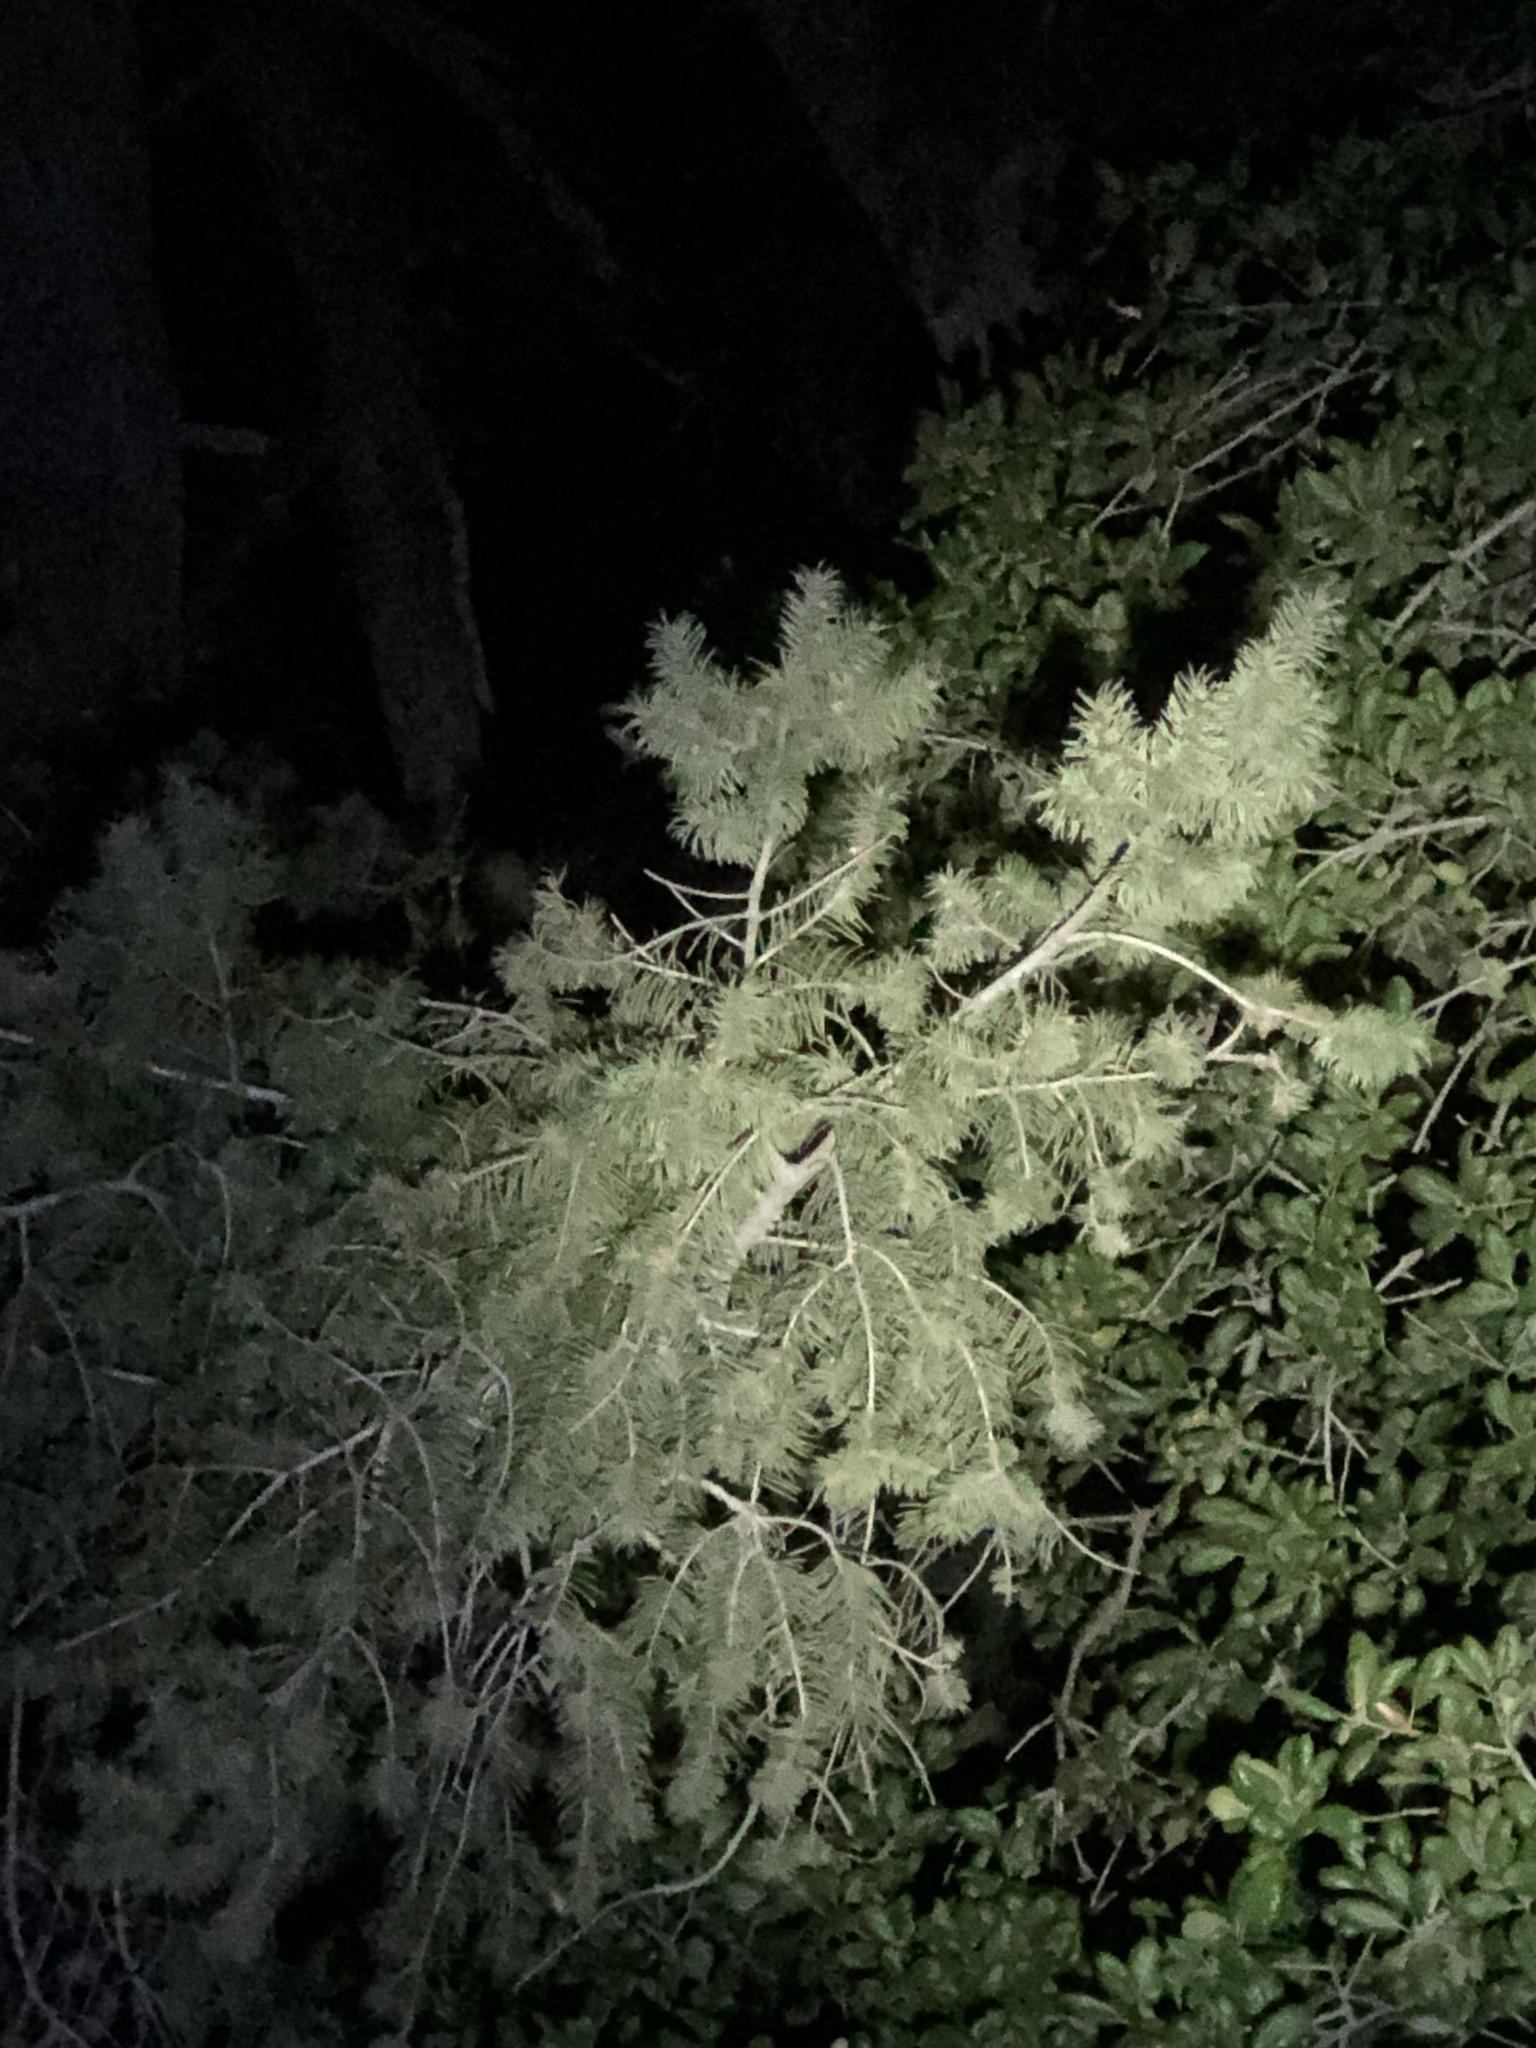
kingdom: Plantae
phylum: Tracheophyta
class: Pinopsida
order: Pinales
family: Pinaceae
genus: Pseudotsuga
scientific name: Pseudotsuga macrocarpa
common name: Big-cone douglas-fir
